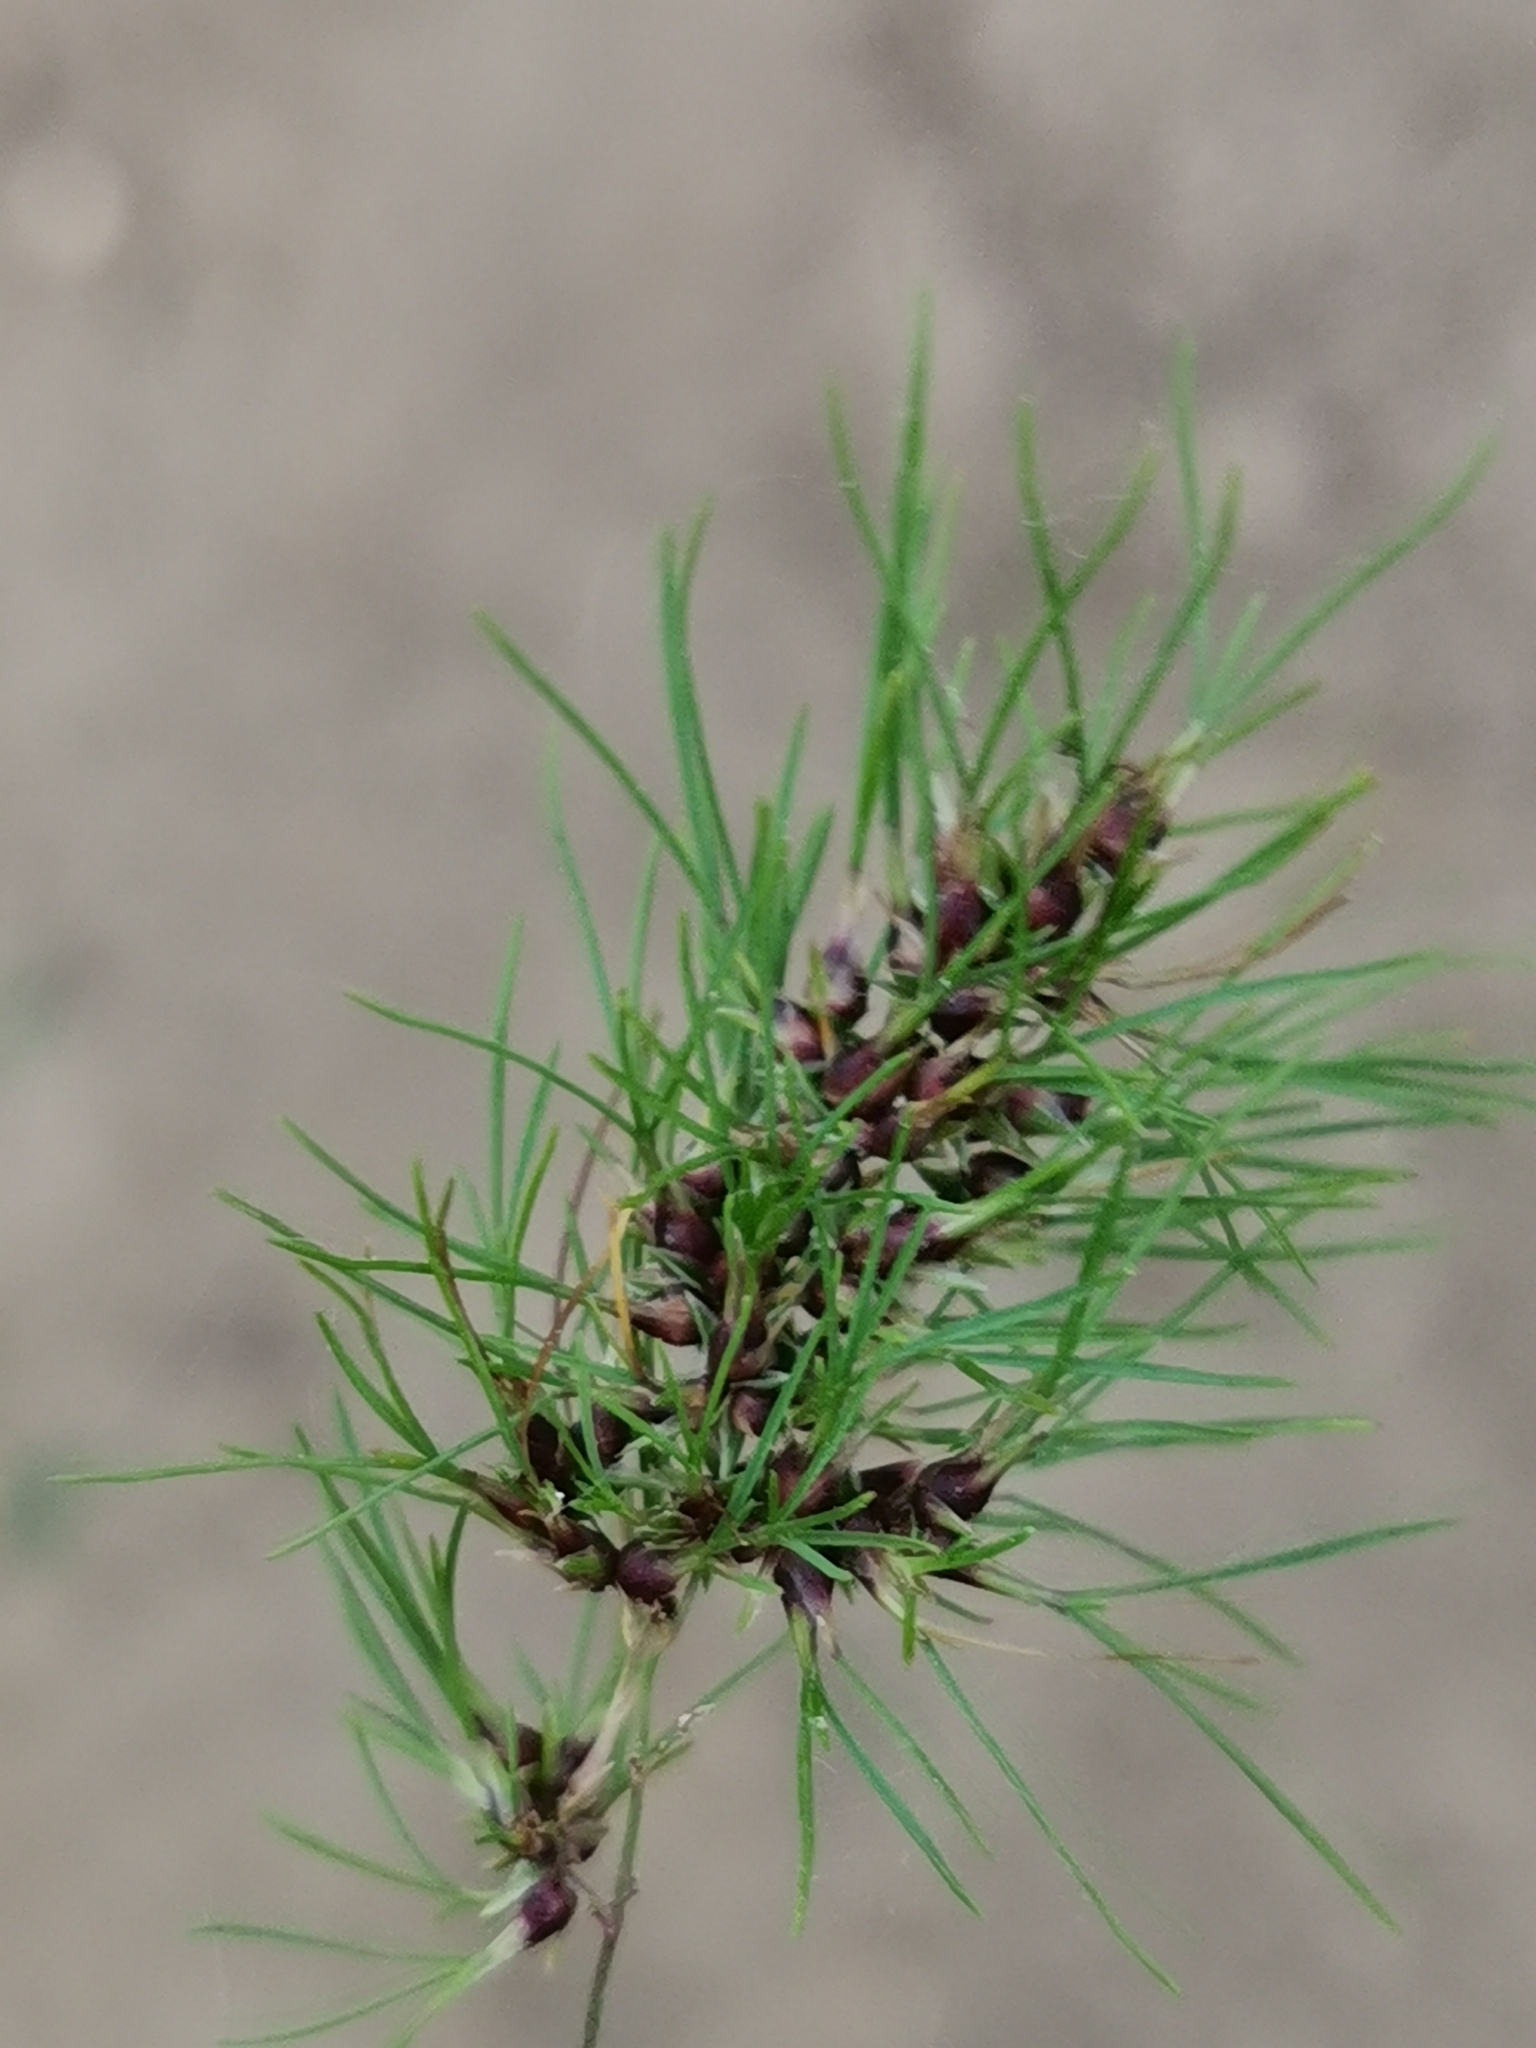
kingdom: Plantae
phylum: Tracheophyta
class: Liliopsida
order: Poales
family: Poaceae
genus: Poa
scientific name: Poa bulbosa
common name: Bulbous bluegrass
